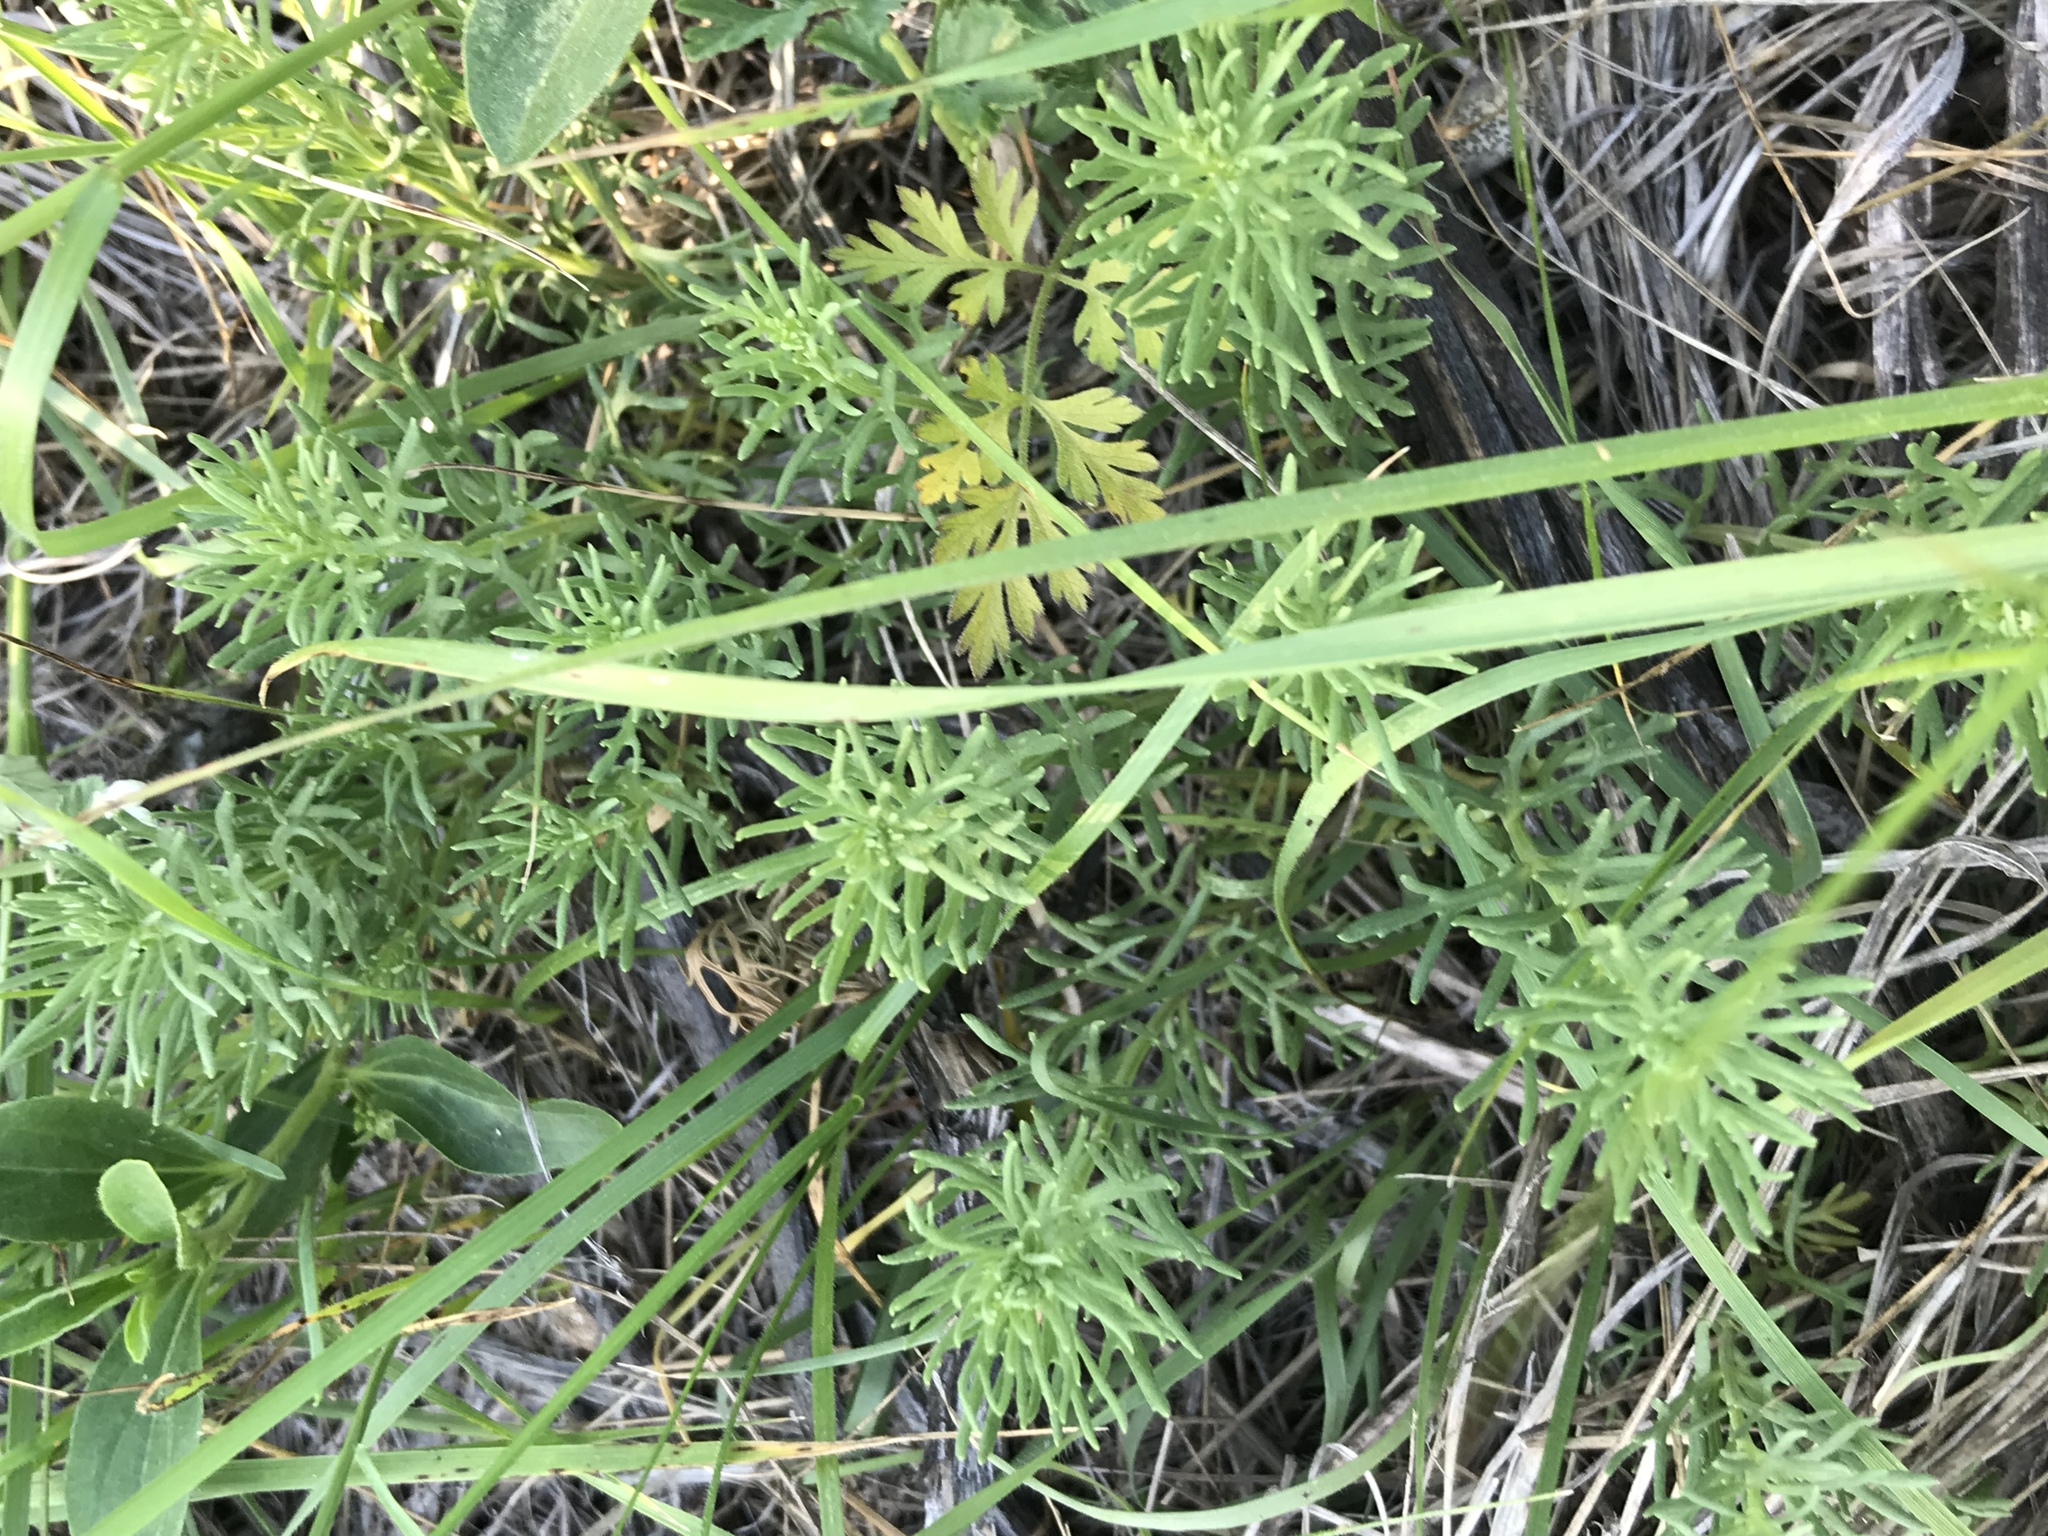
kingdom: Plantae
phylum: Tracheophyta
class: Magnoliopsida
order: Lamiales
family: Lamiaceae
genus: Teucrium
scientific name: Teucrium laciniatum
